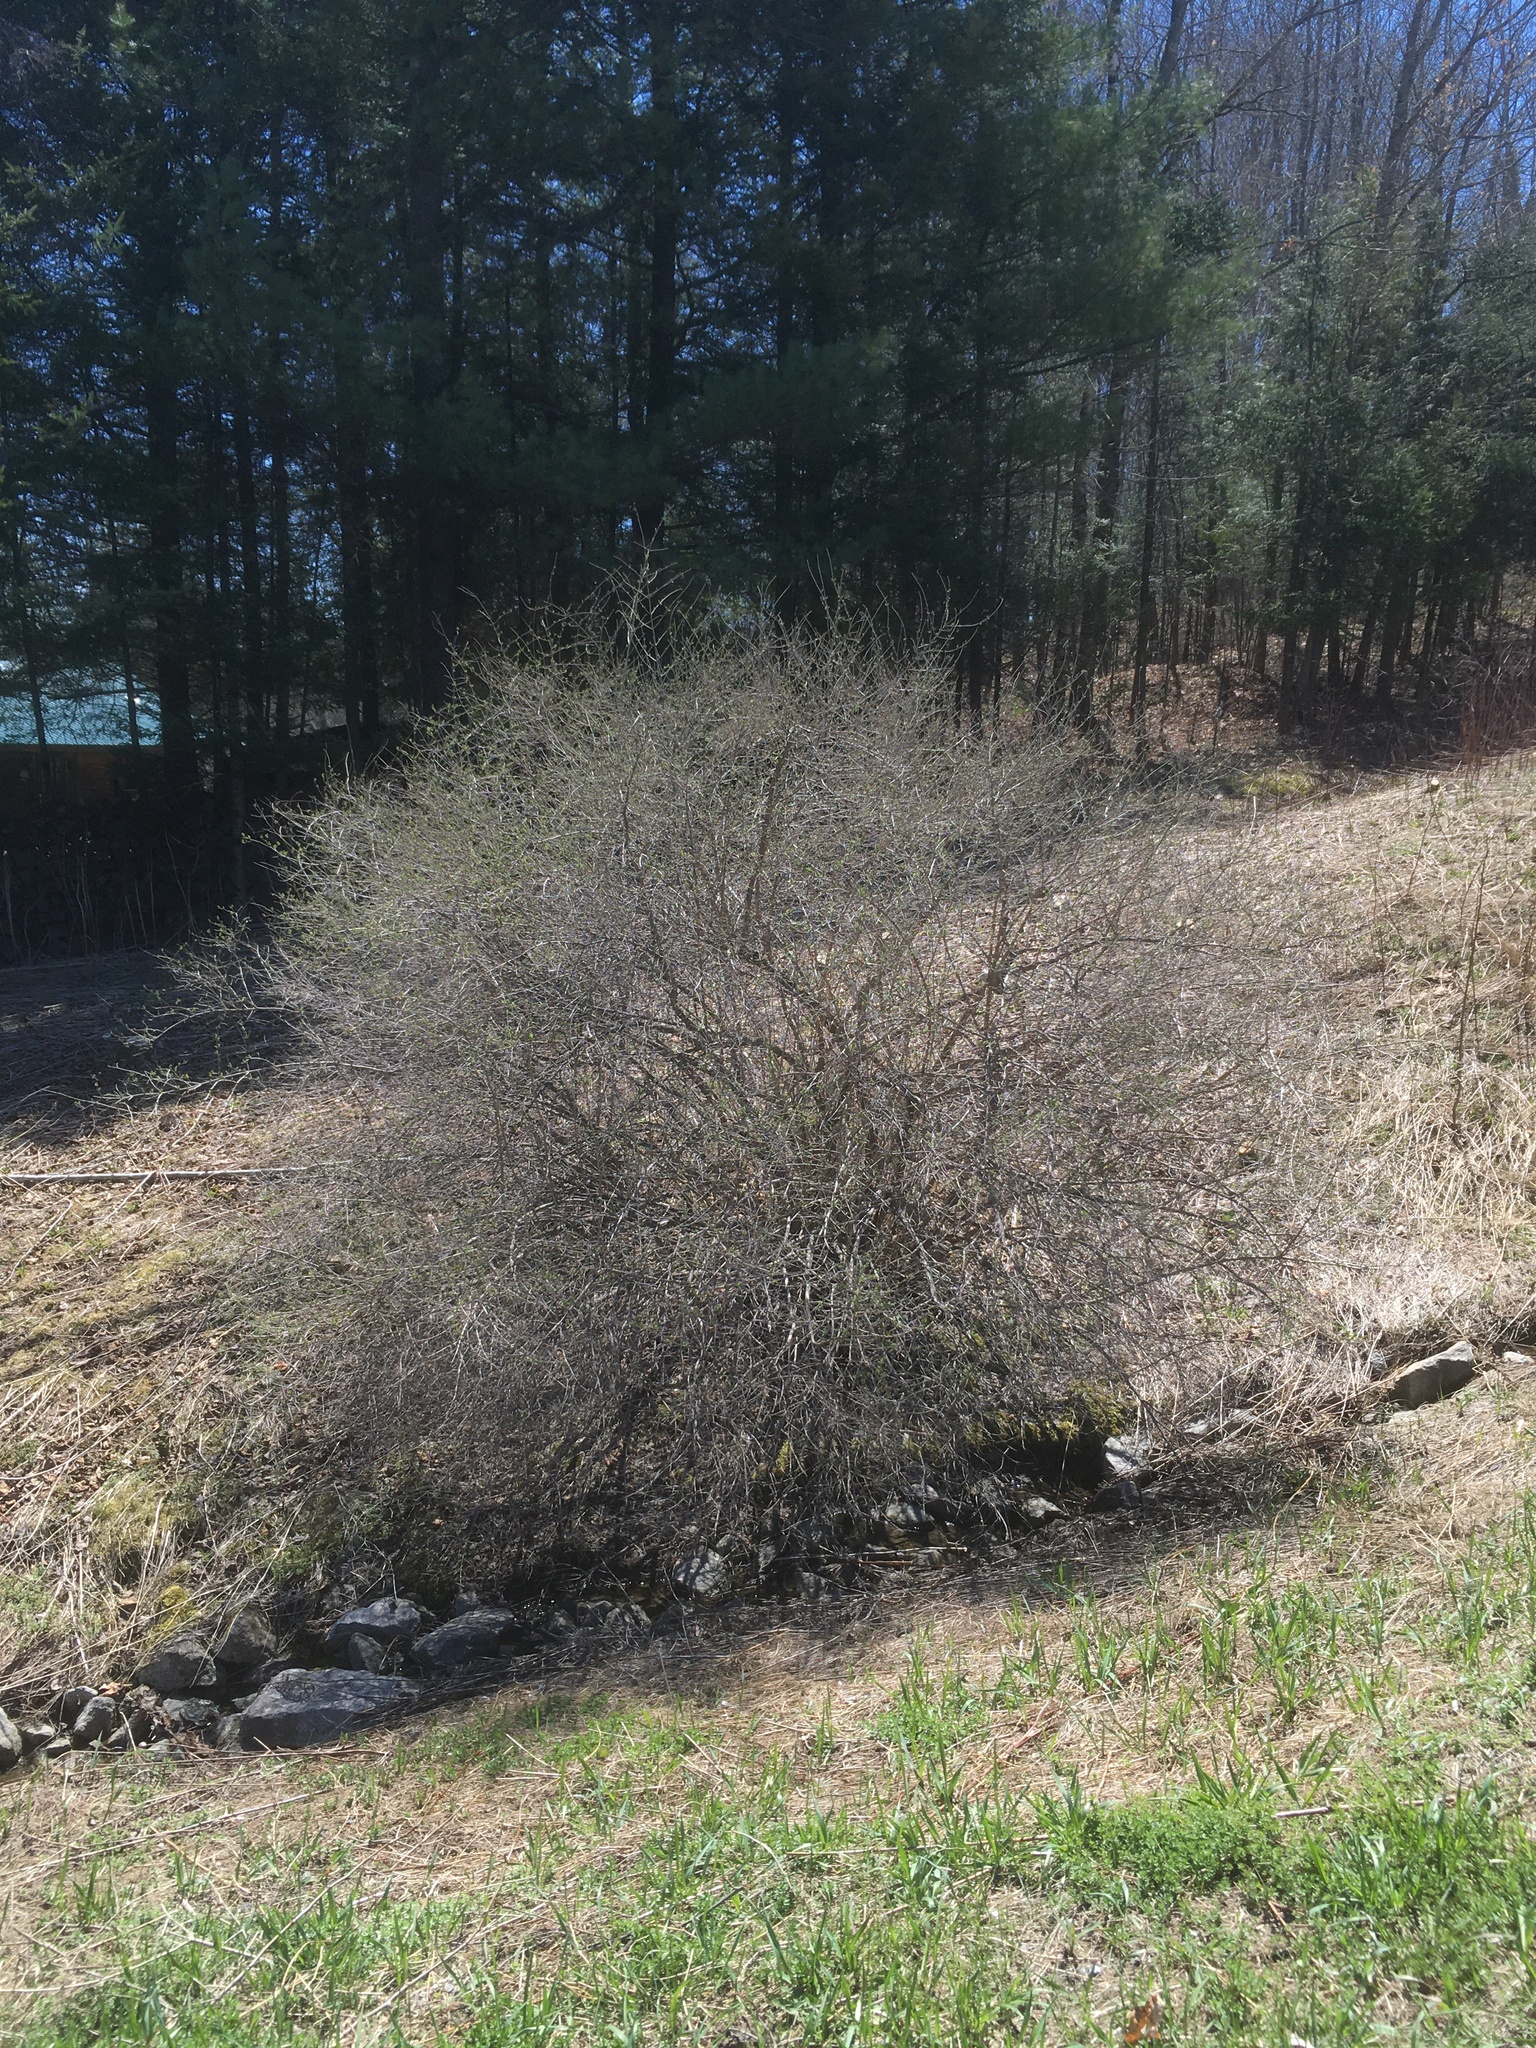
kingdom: Plantae
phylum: Tracheophyta
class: Magnoliopsida
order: Dipsacales
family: Caprifoliaceae
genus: Lonicera
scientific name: Lonicera
